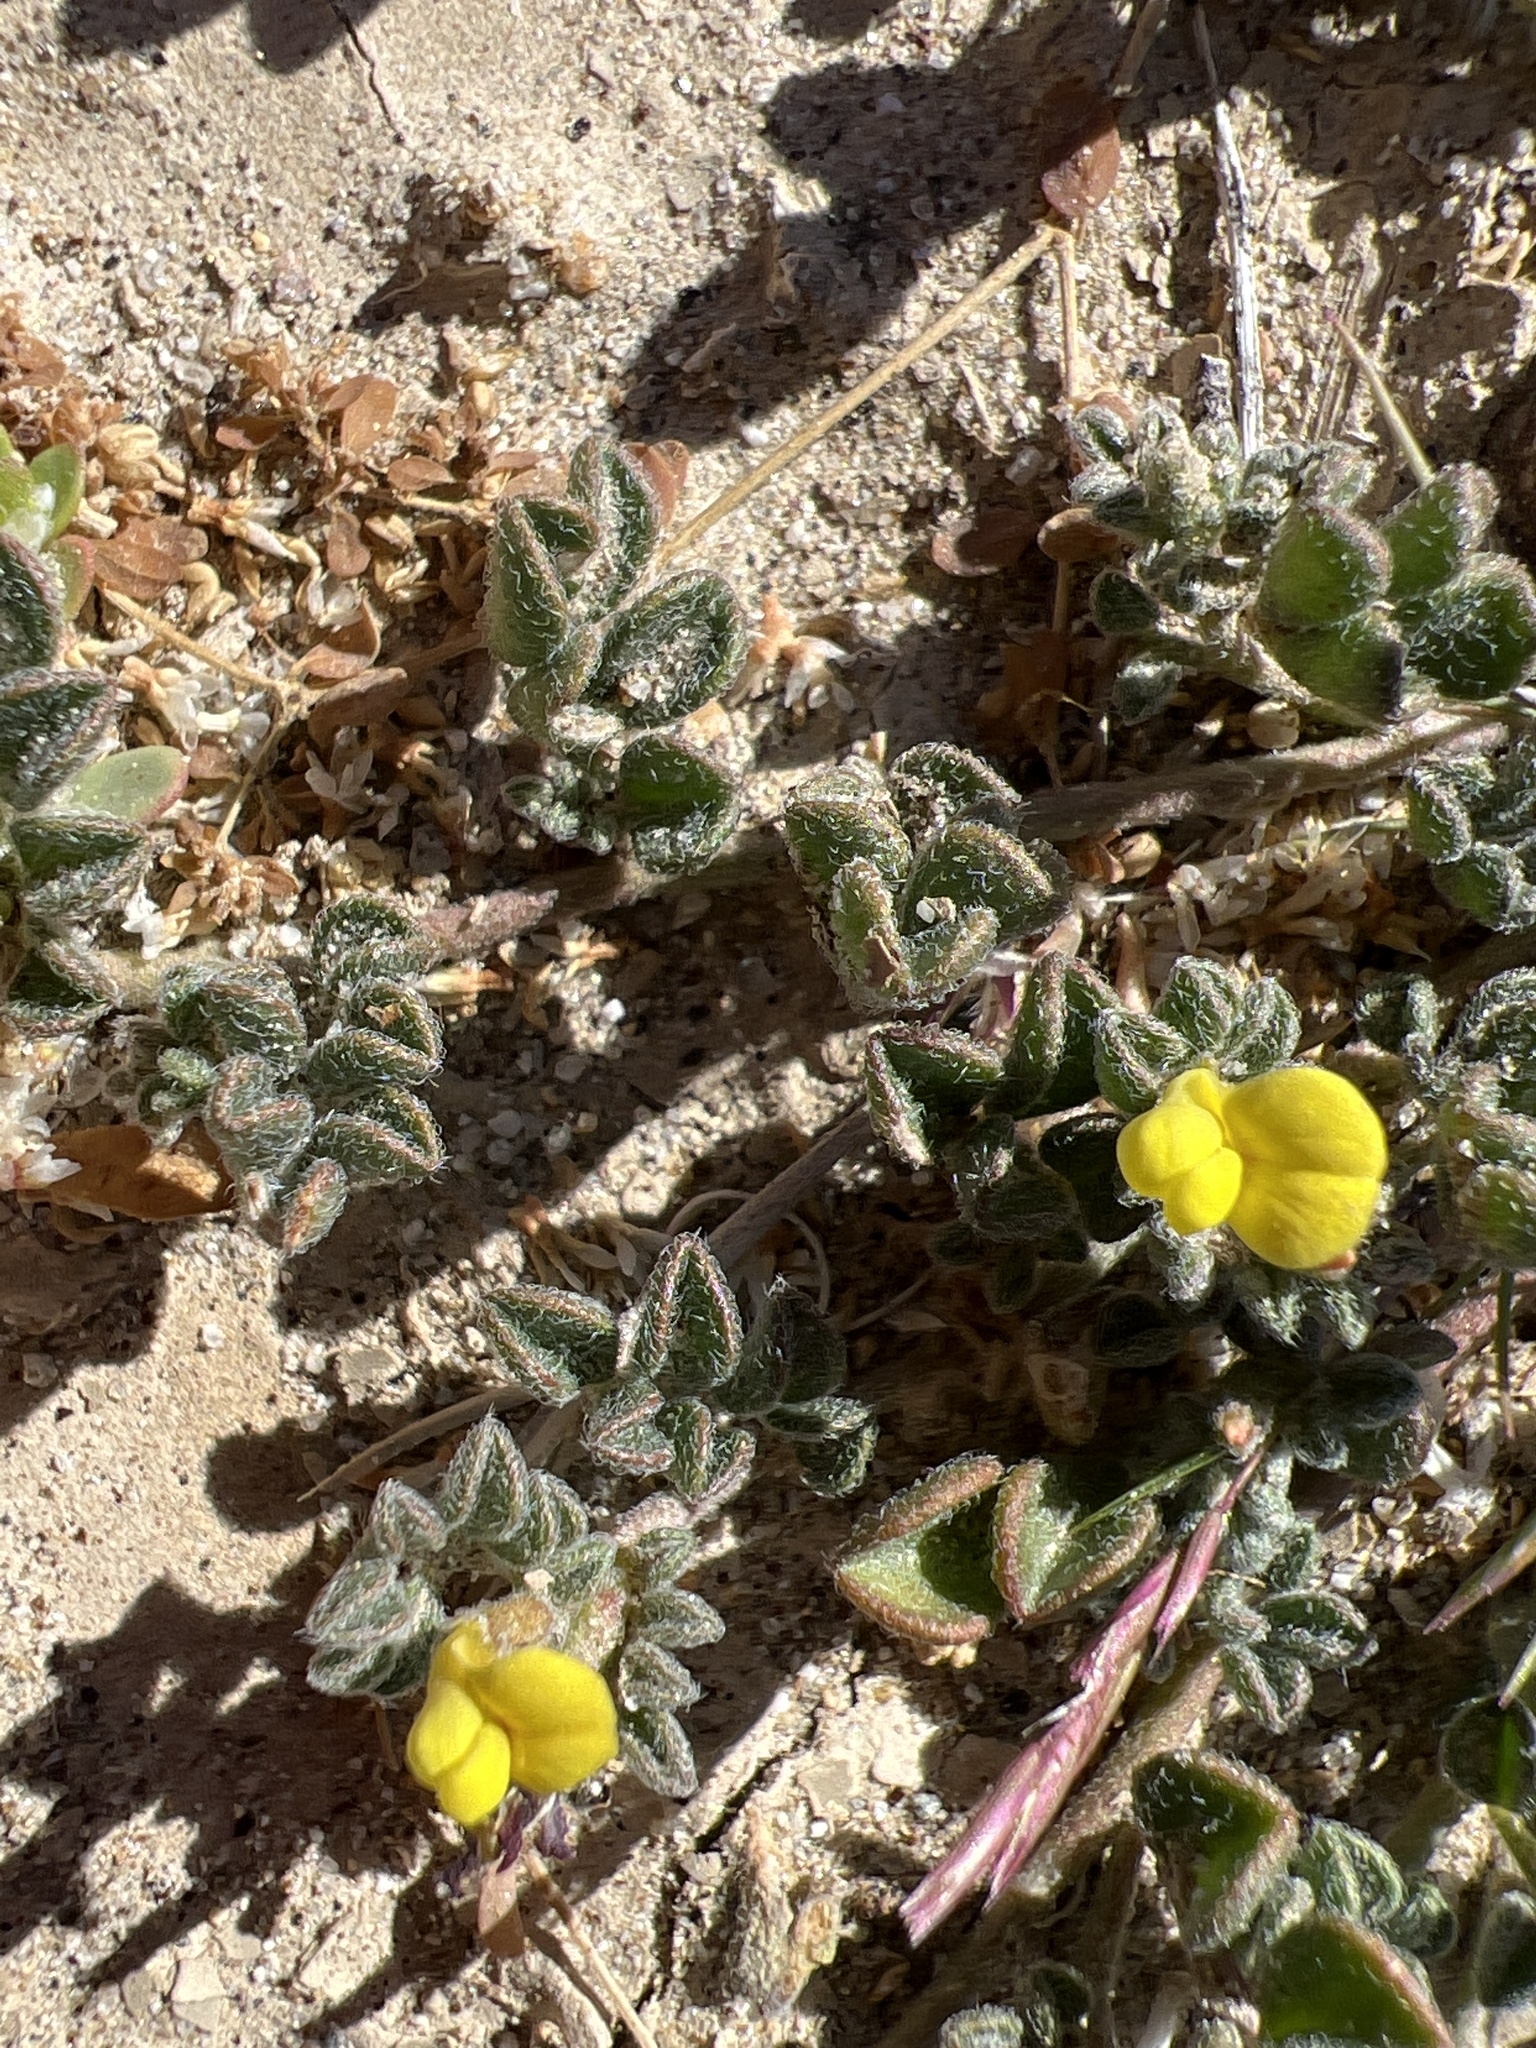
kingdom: Plantae
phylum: Tracheophyta
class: Magnoliopsida
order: Fabales
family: Fabaceae
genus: Acmispon
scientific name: Acmispon strigosus
